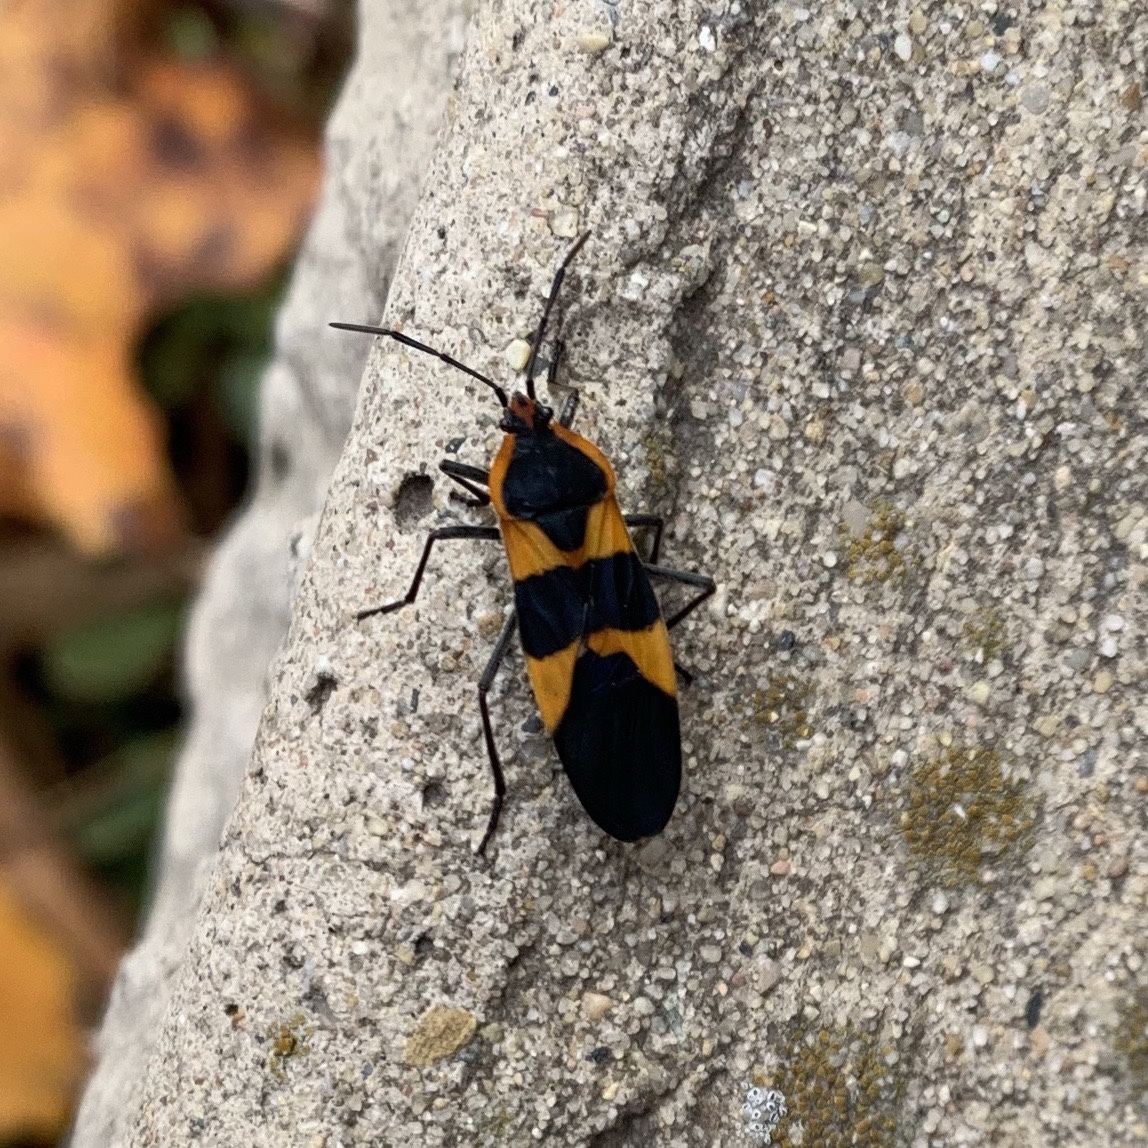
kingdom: Animalia
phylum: Arthropoda
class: Insecta
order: Hemiptera
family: Lygaeidae
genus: Oncopeltus
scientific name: Oncopeltus fasciatus
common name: Large milkweed bug
